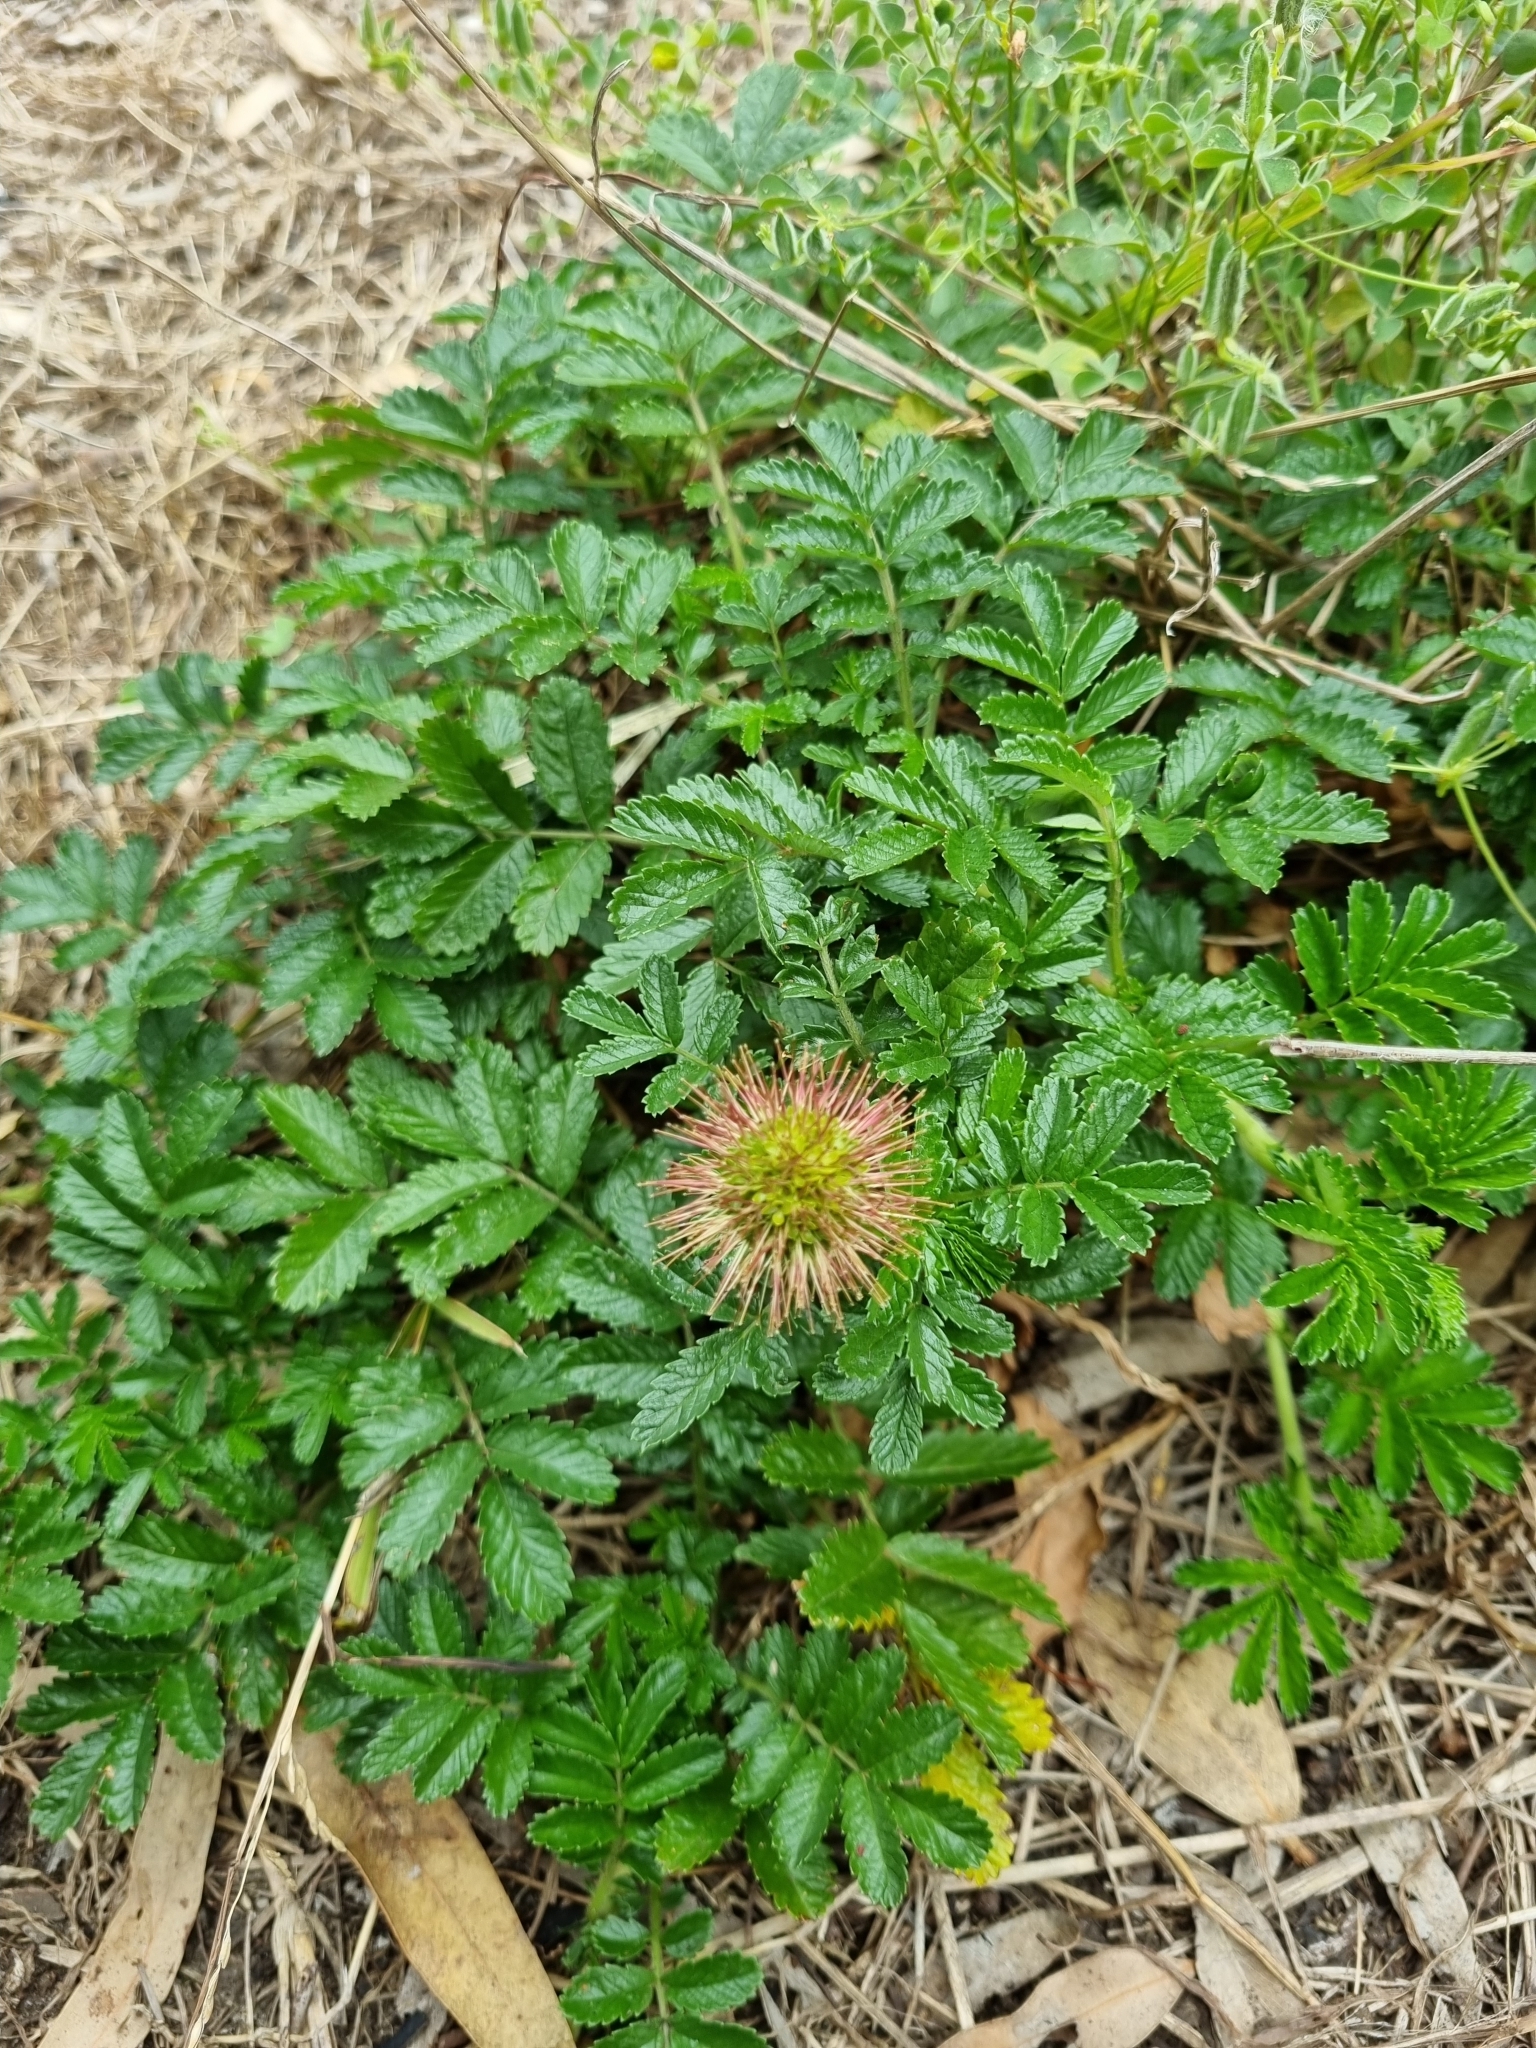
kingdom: Plantae
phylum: Tracheophyta
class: Magnoliopsida
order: Rosales
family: Rosaceae
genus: Acaena
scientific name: Acaena novae-zelandiae
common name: Pirri-pirri-bur
